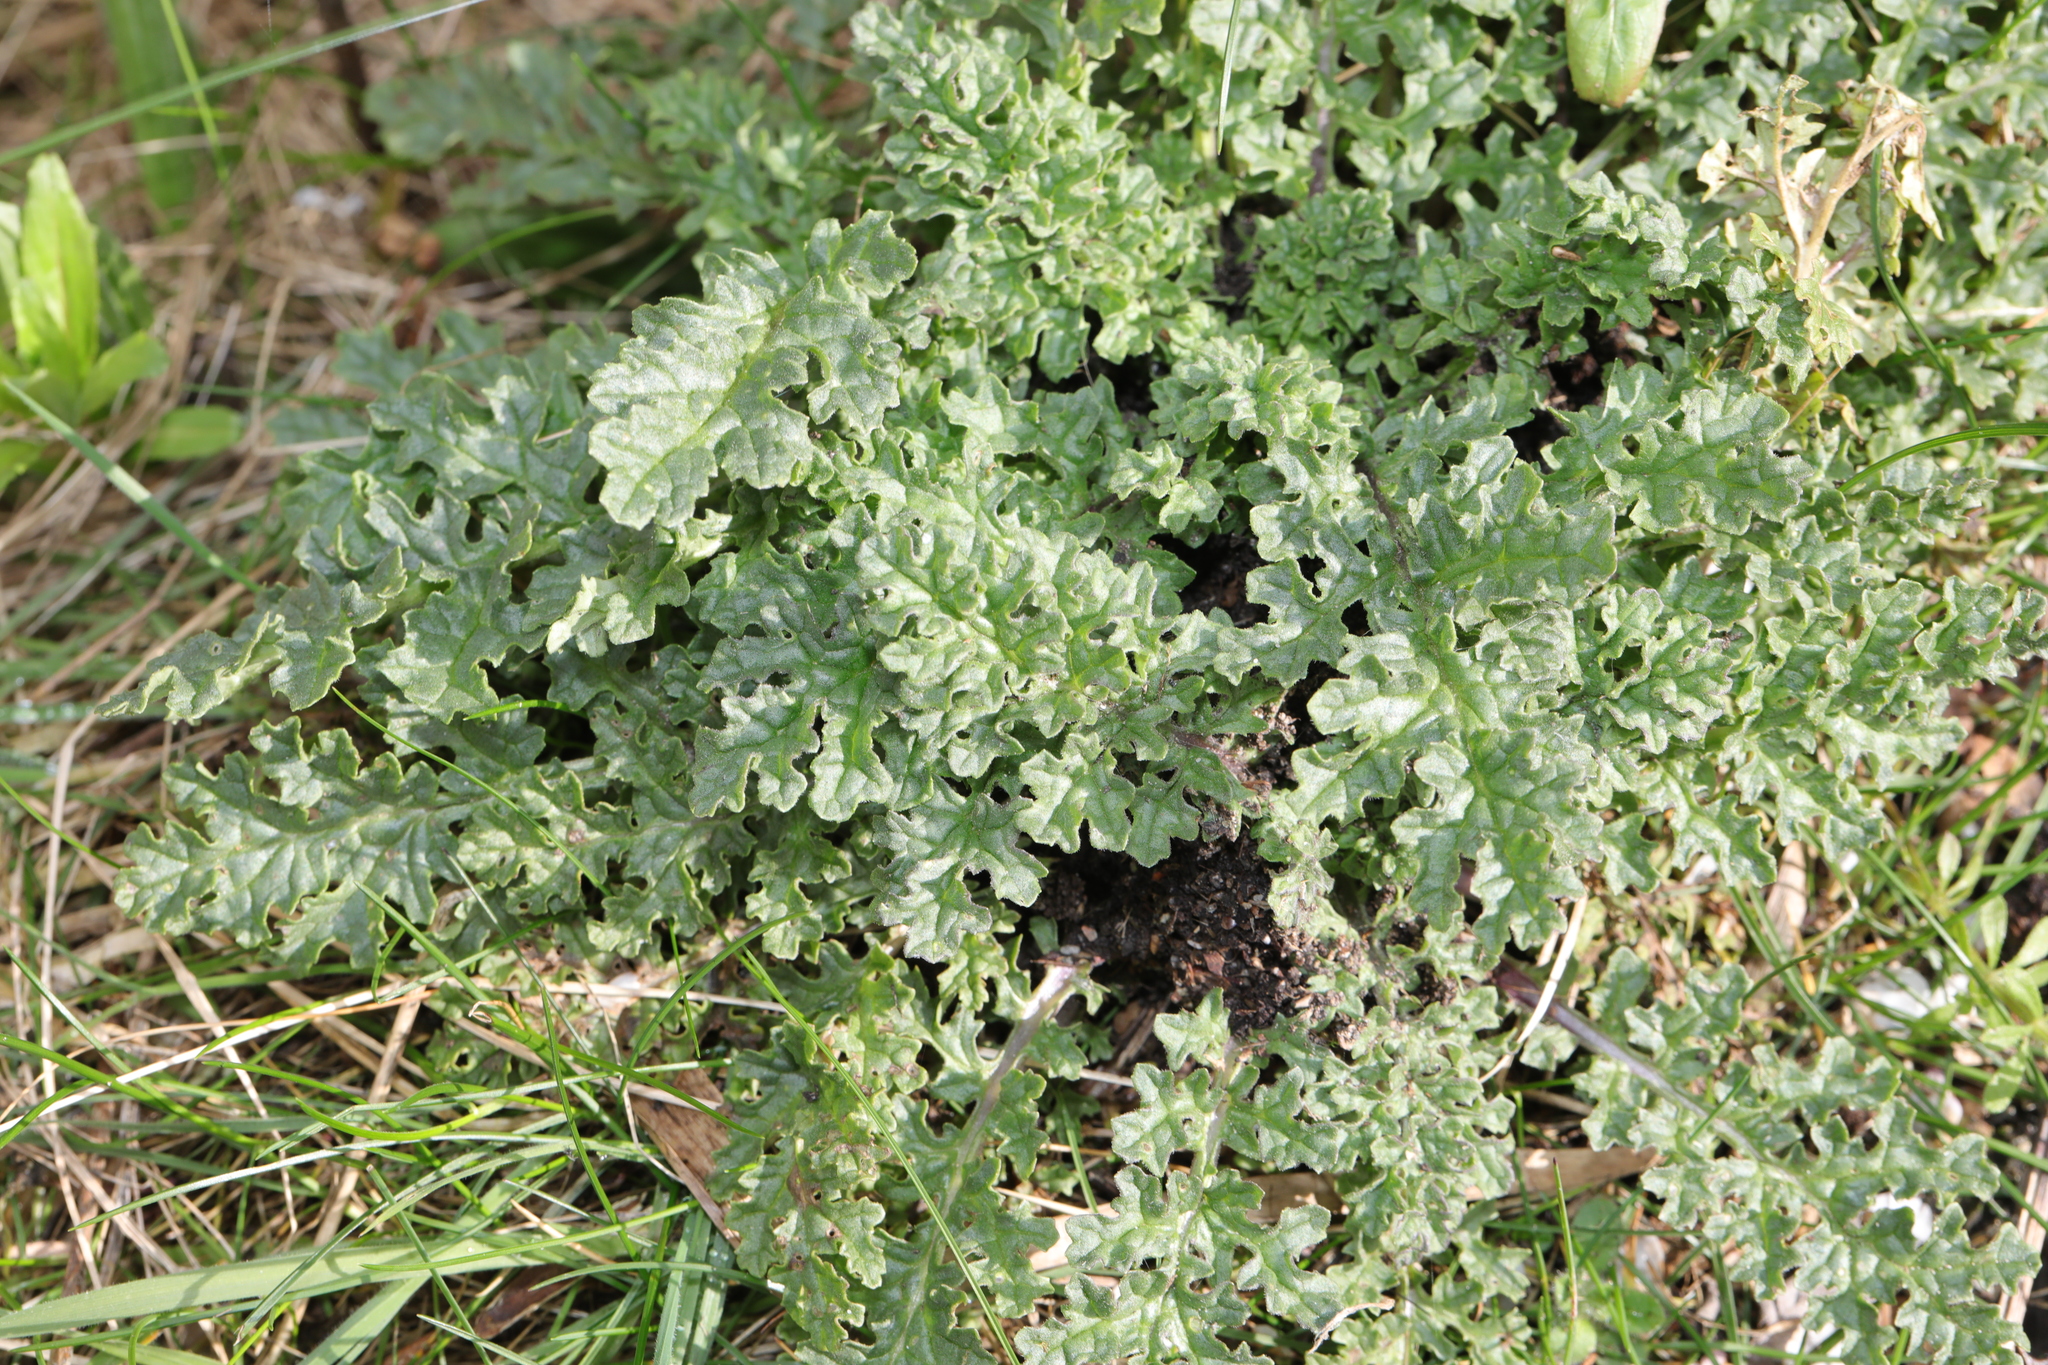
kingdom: Plantae
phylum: Tracheophyta
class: Magnoliopsida
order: Asterales
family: Asteraceae
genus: Jacobaea
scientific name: Jacobaea vulgaris
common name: Stinking willie
